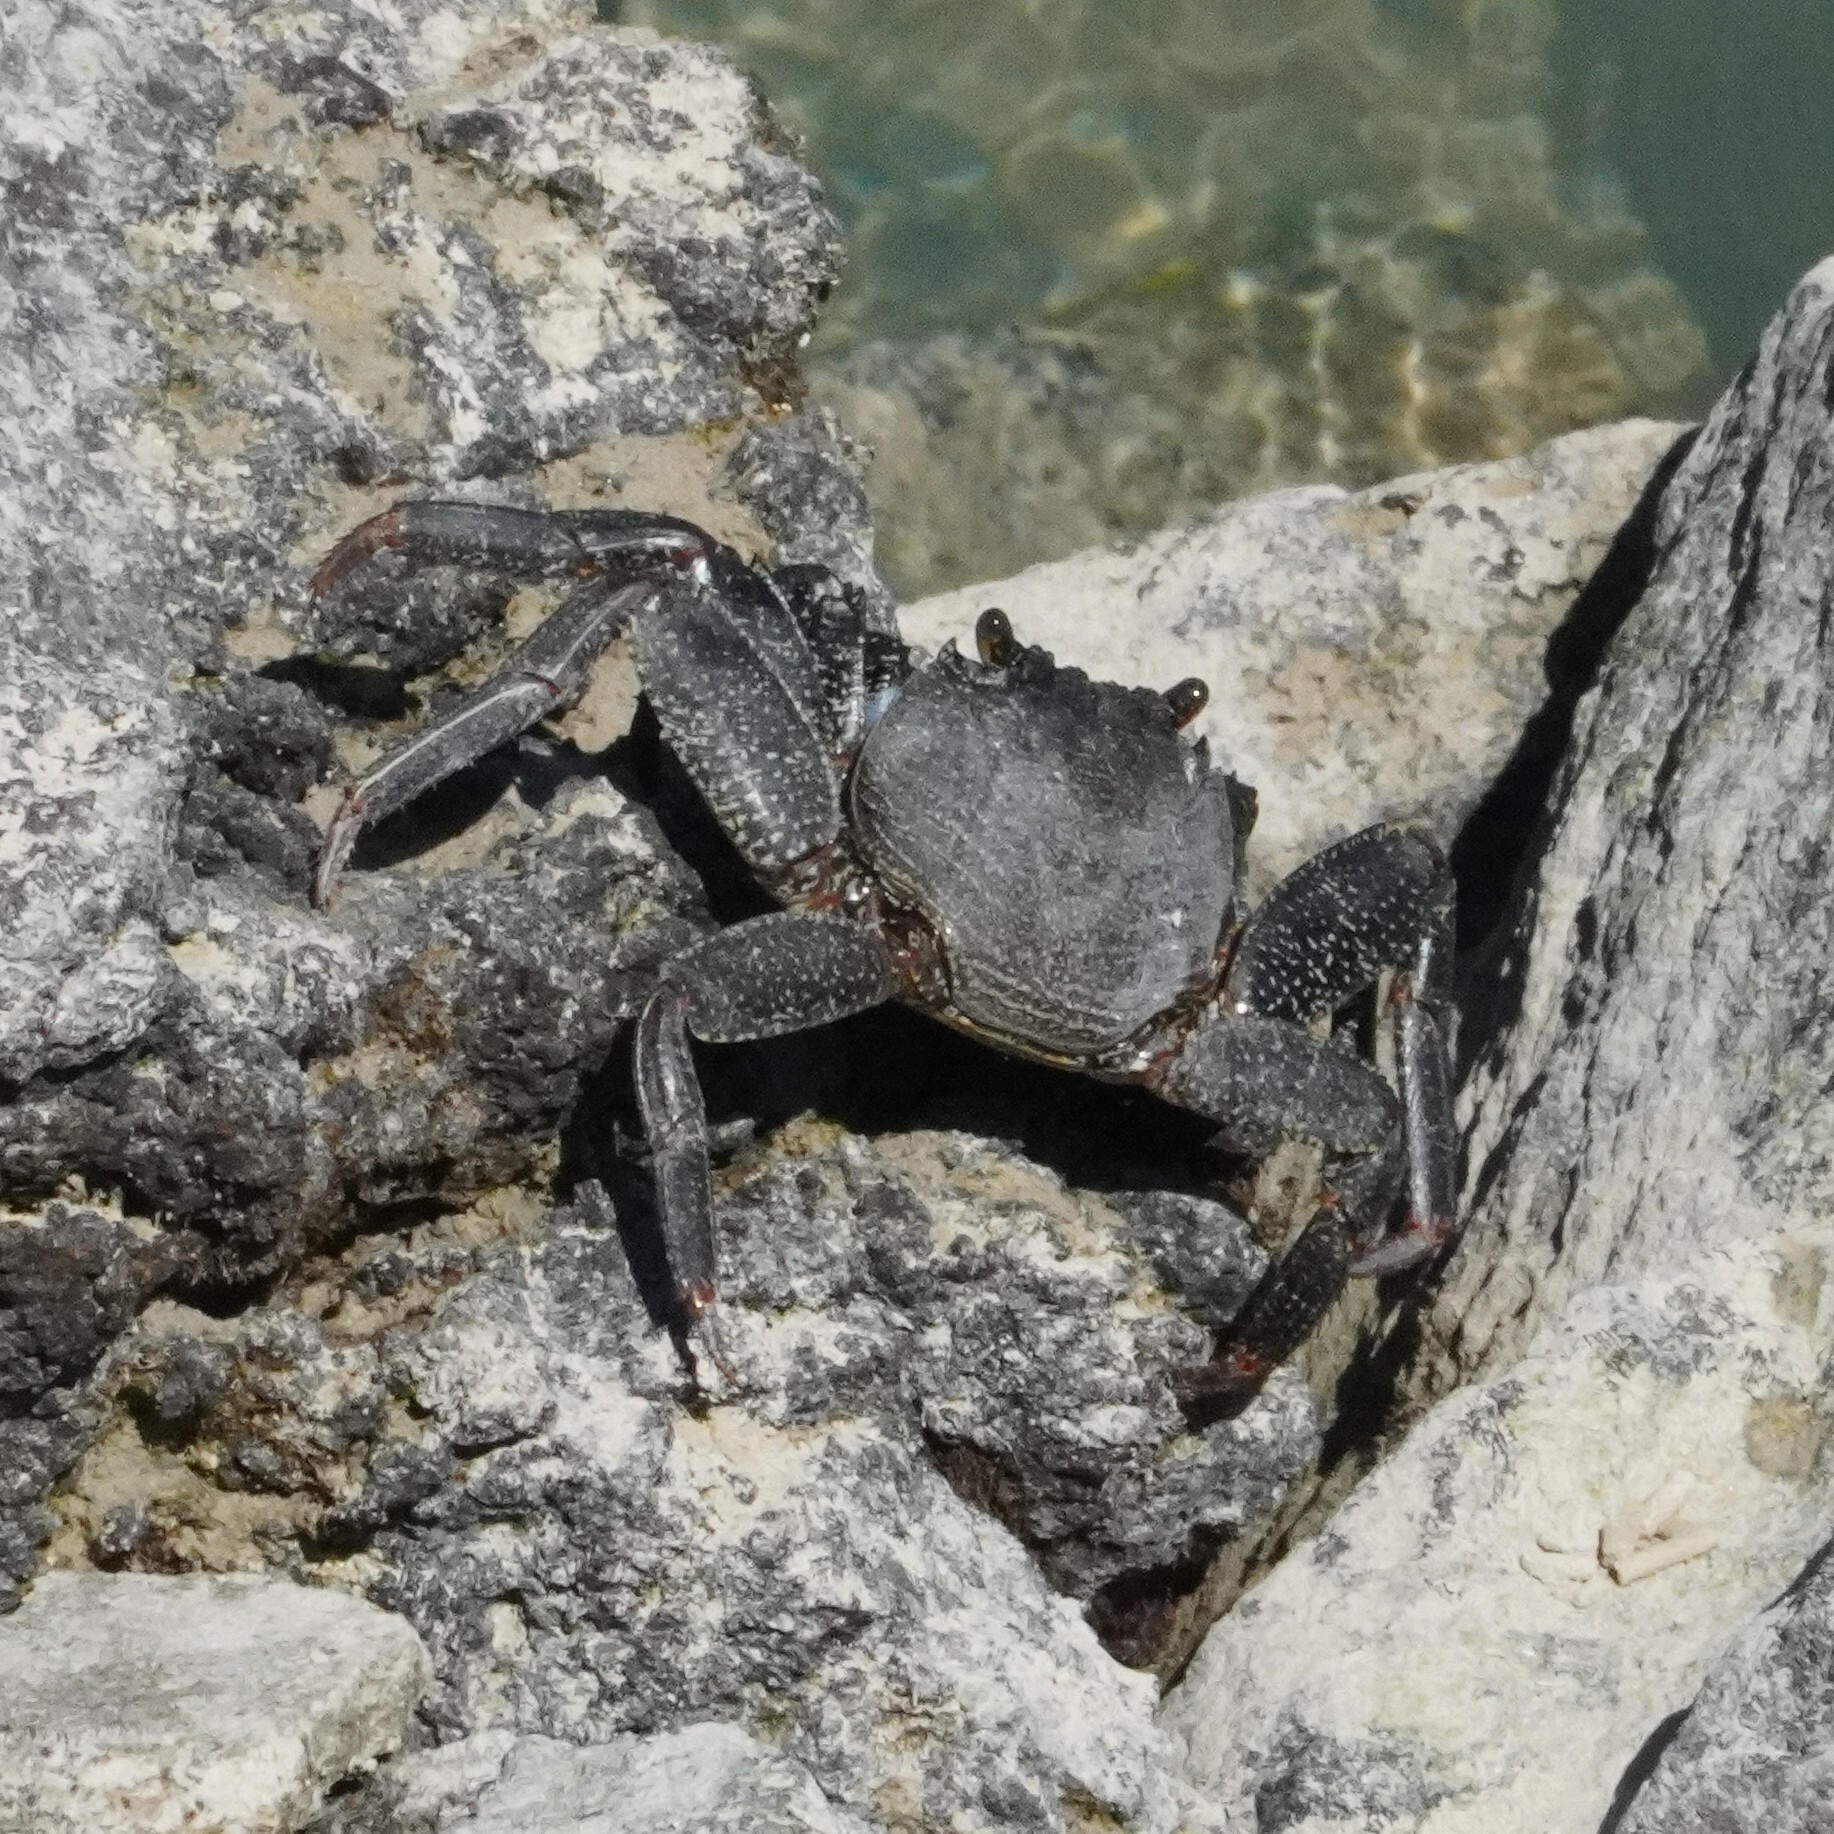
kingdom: Animalia
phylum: Arthropoda
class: Malacostraca
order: Decapoda
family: Grapsidae
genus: Grapsus
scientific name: Grapsus adscensionis
